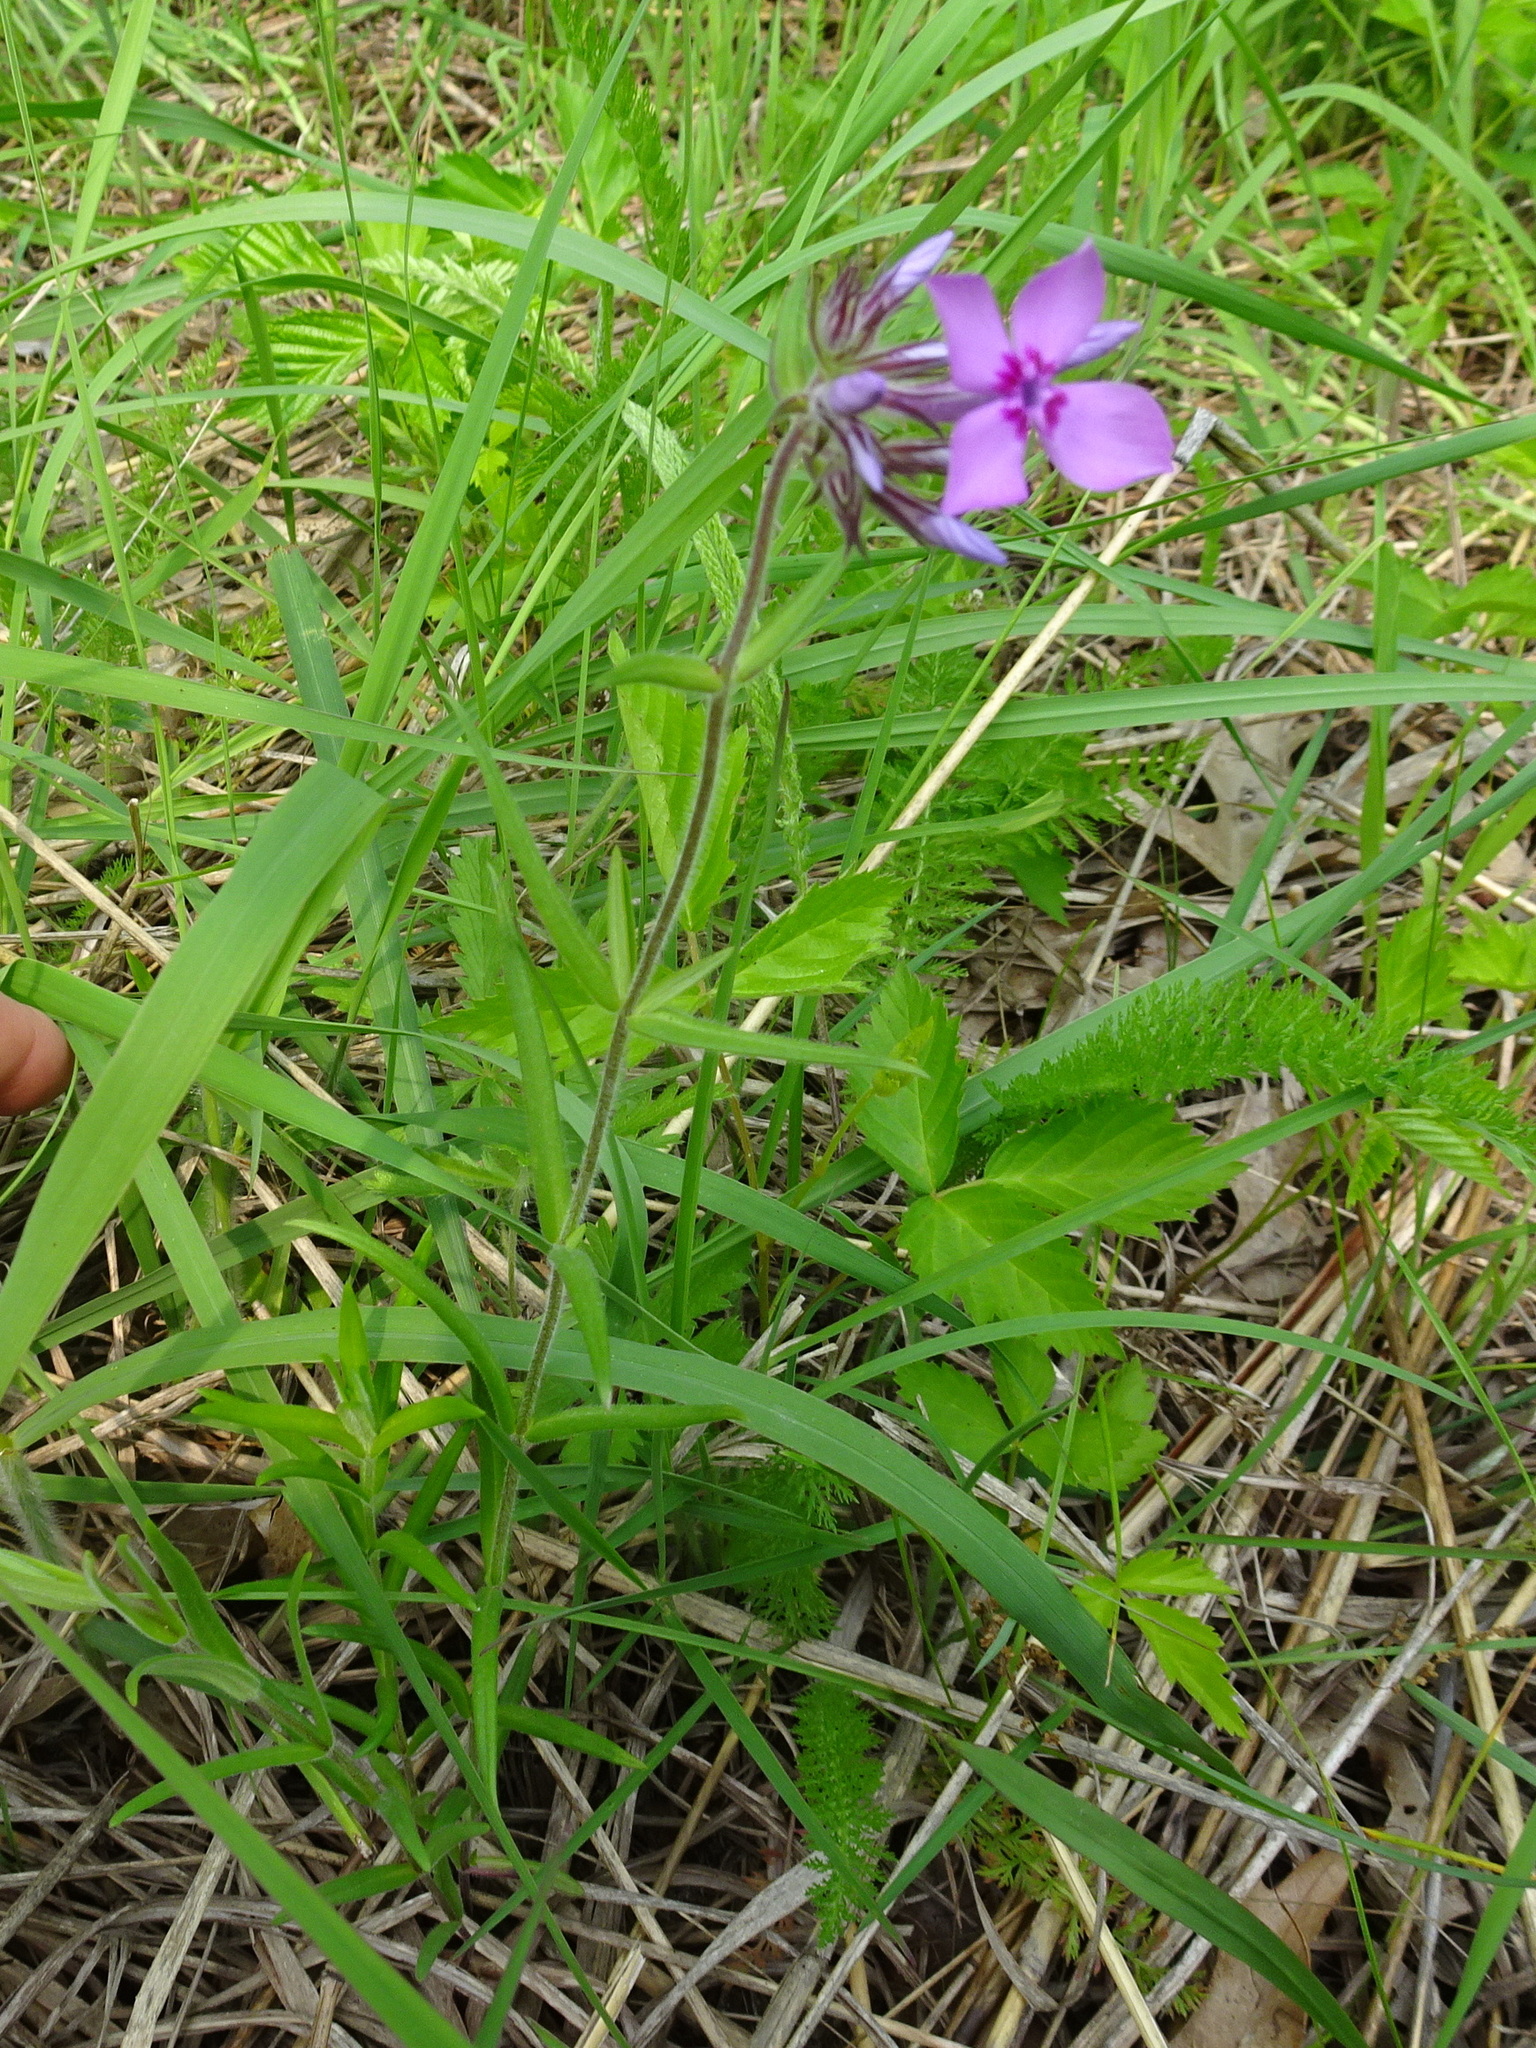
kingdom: Plantae
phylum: Tracheophyta
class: Magnoliopsida
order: Ericales
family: Polemoniaceae
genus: Phlox
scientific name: Phlox pilosa
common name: Prairie phlox
